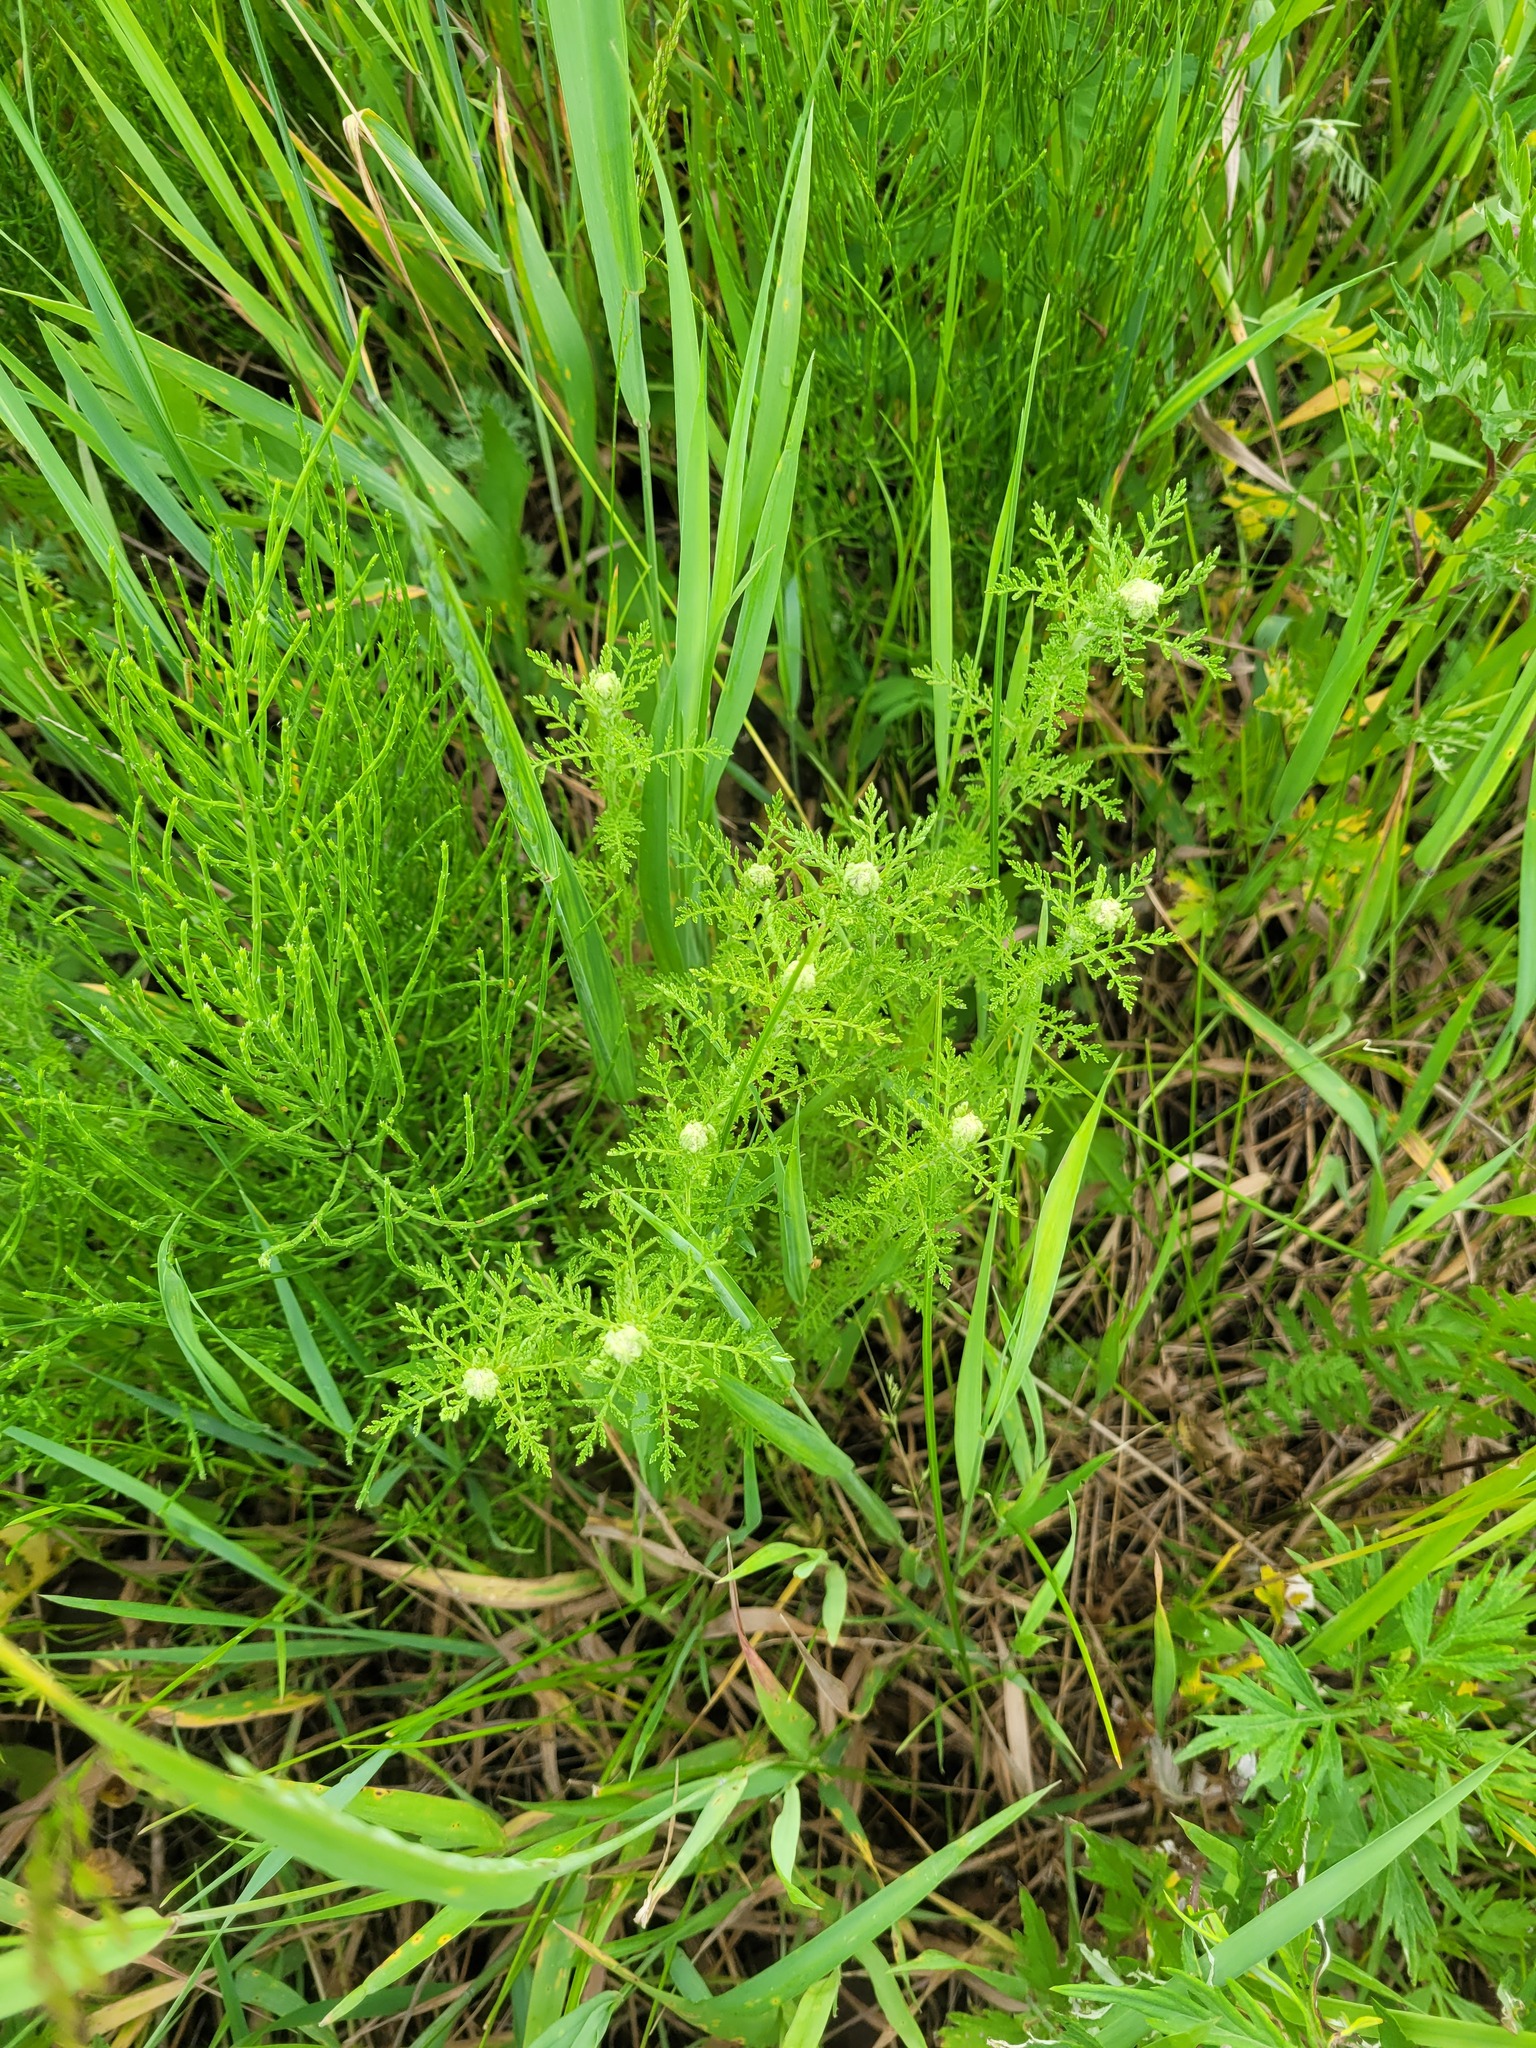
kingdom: Plantae
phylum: Tracheophyta
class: Magnoliopsida
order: Asterales
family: Asteraceae
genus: Achillea
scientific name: Achillea nobilis
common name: Noble yarrow
